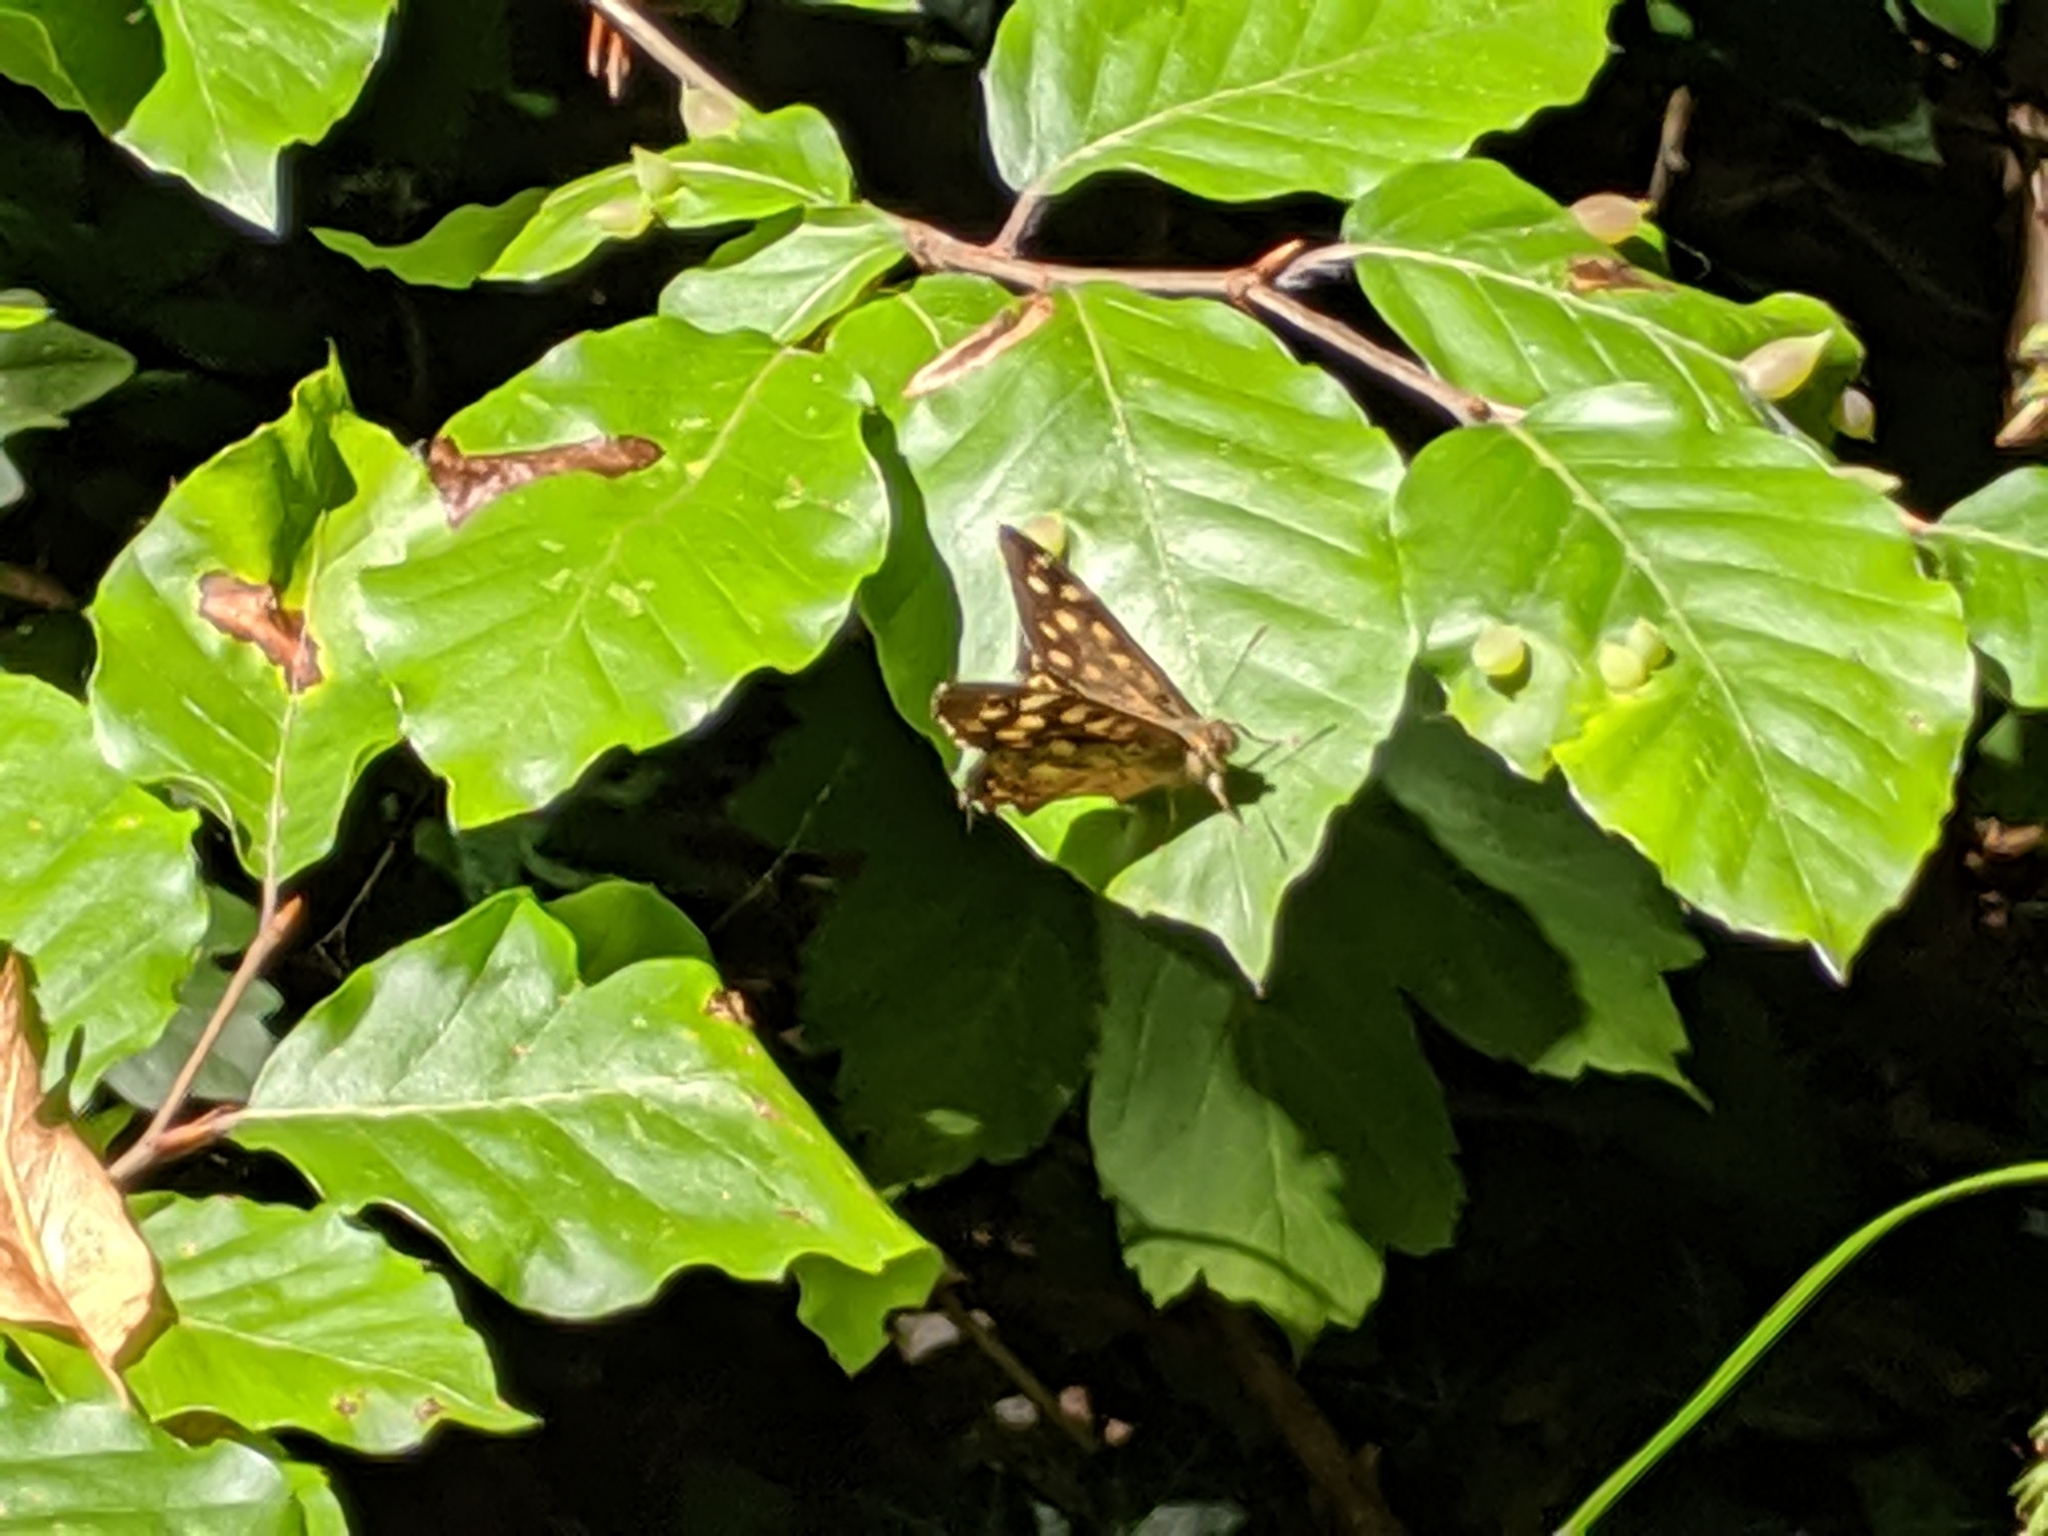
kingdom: Animalia
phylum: Arthropoda
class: Insecta
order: Lepidoptera
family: Nymphalidae
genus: Pararge
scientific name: Pararge aegeria
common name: Speckled wood
